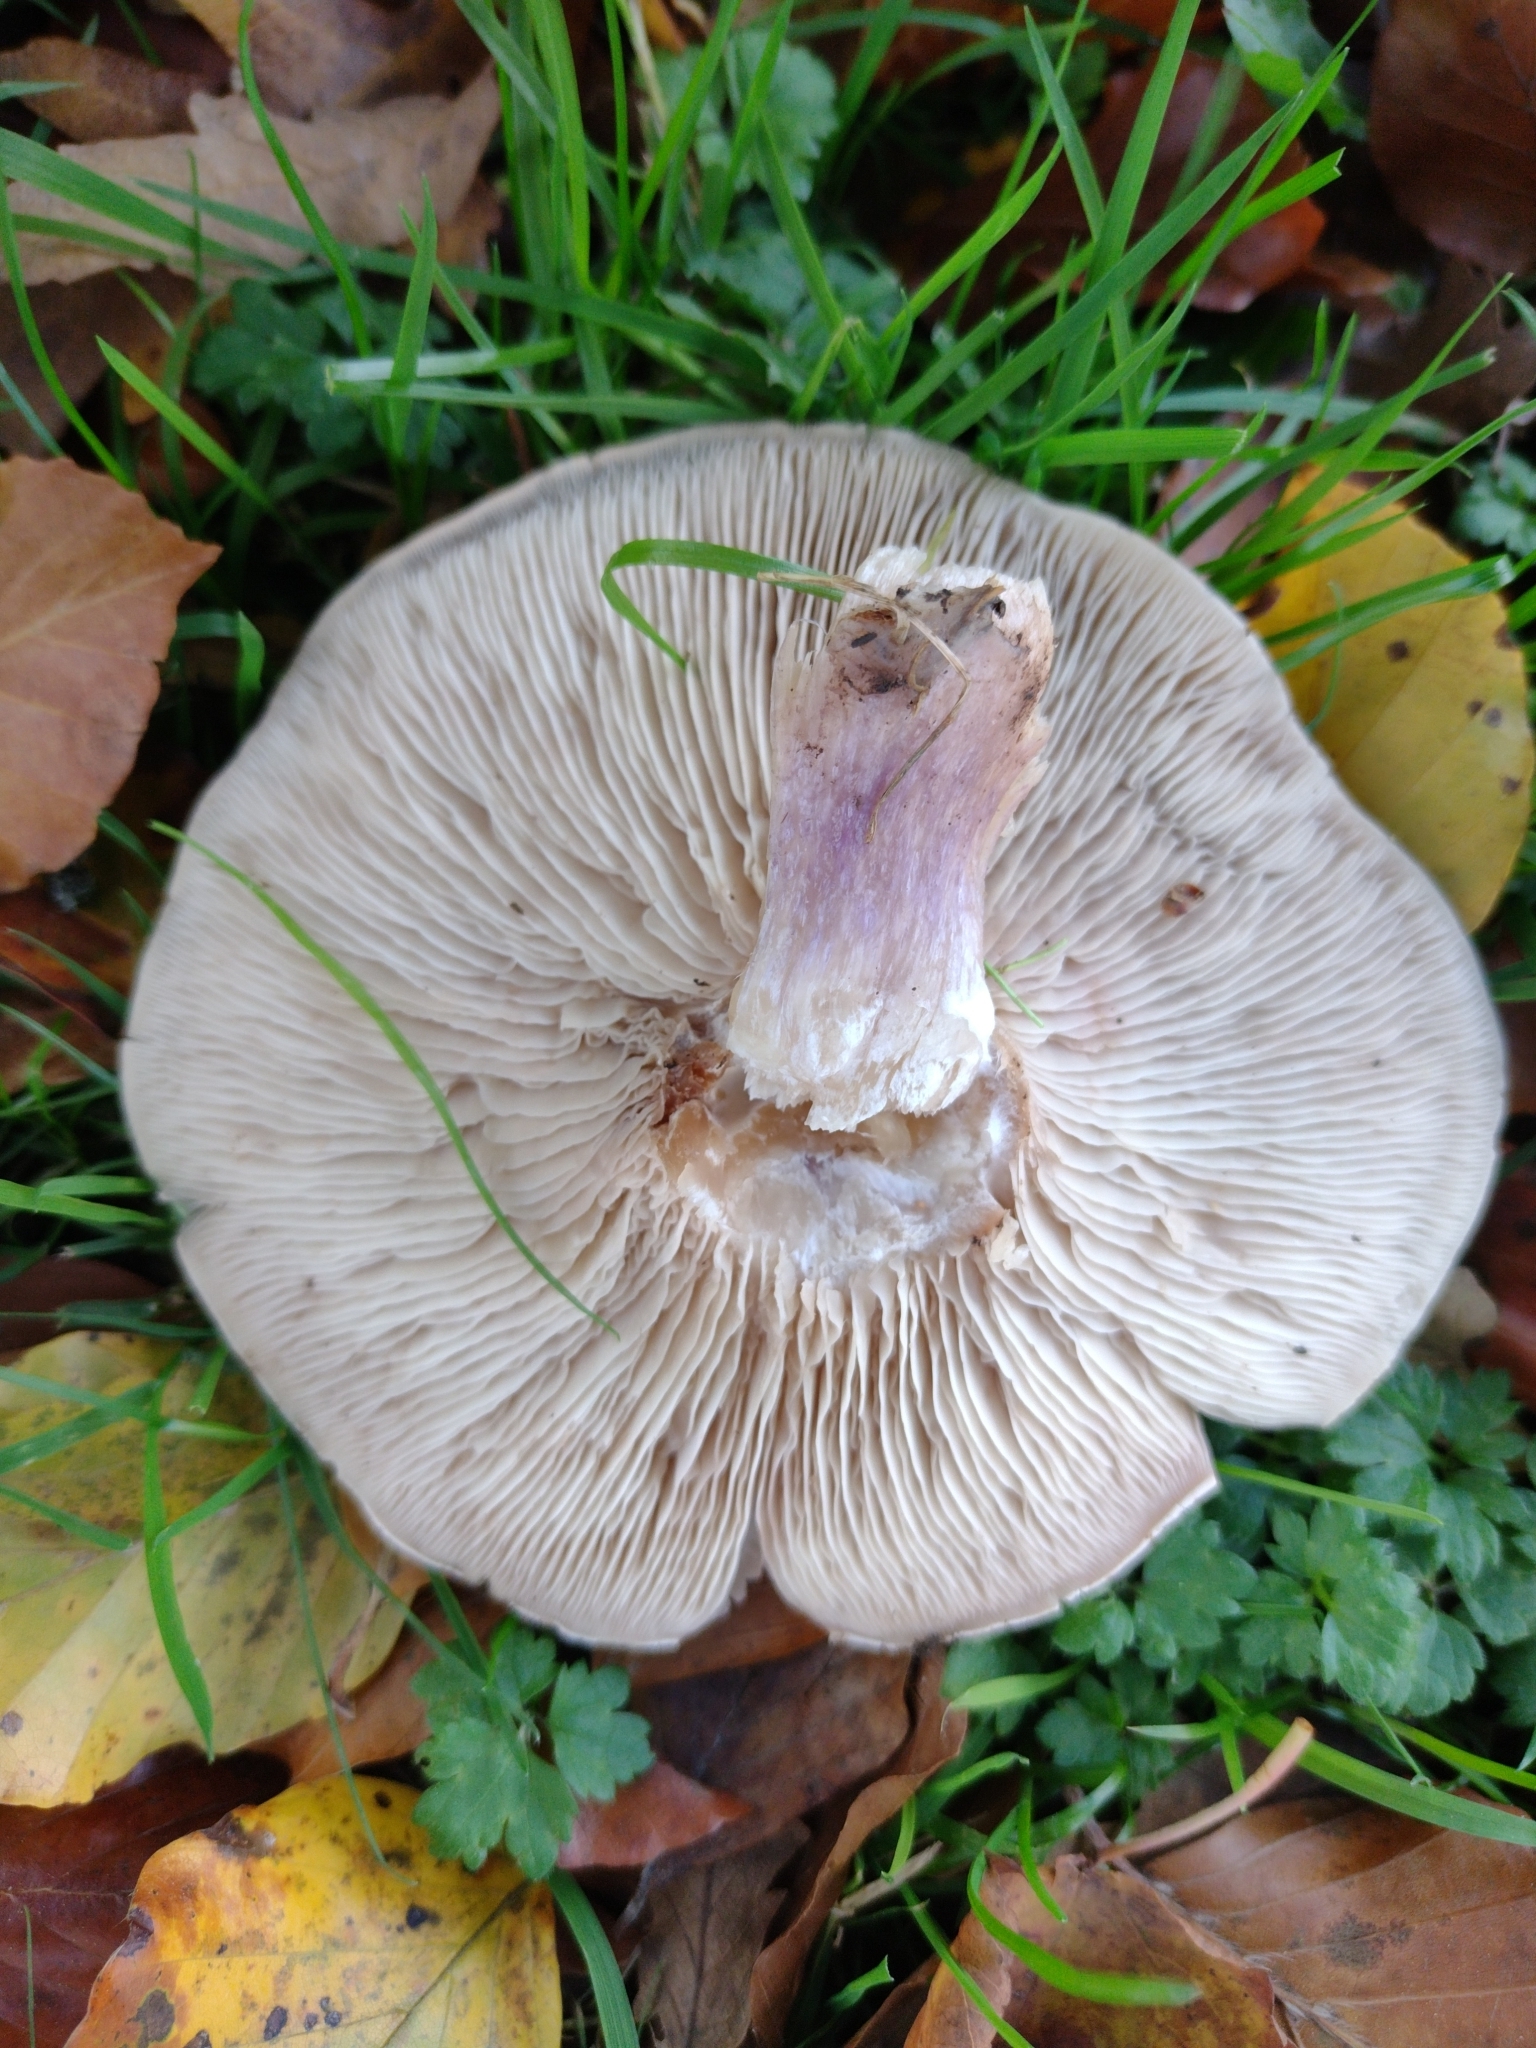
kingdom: Fungi
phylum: Basidiomycota
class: Agaricomycetes
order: Agaricales
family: Omphalotaceae
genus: Collybiopsis
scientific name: Collybiopsis peronata
